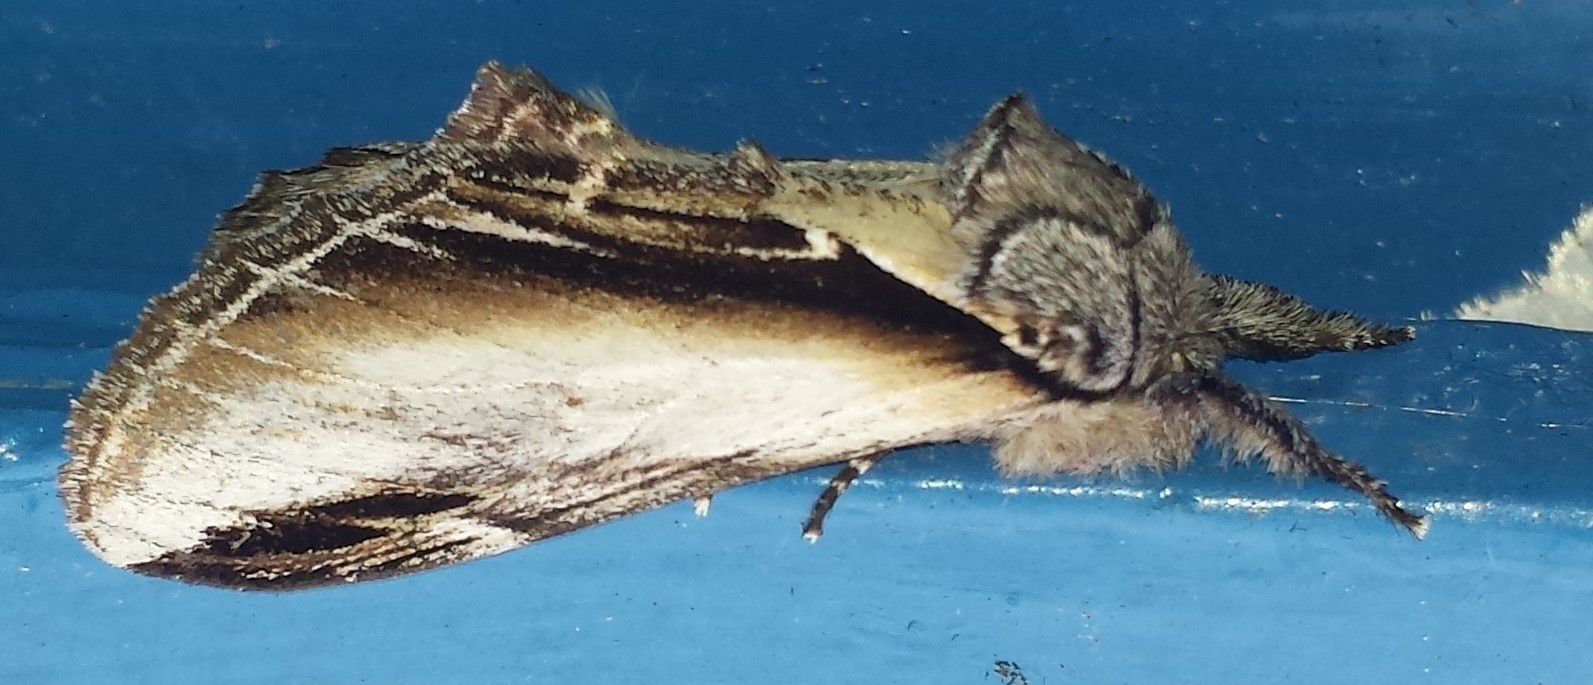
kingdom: Animalia
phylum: Arthropoda
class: Insecta
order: Lepidoptera
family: Notodontidae
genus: Pheosia
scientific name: Pheosia rimosa
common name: Black-rimmed prominent
